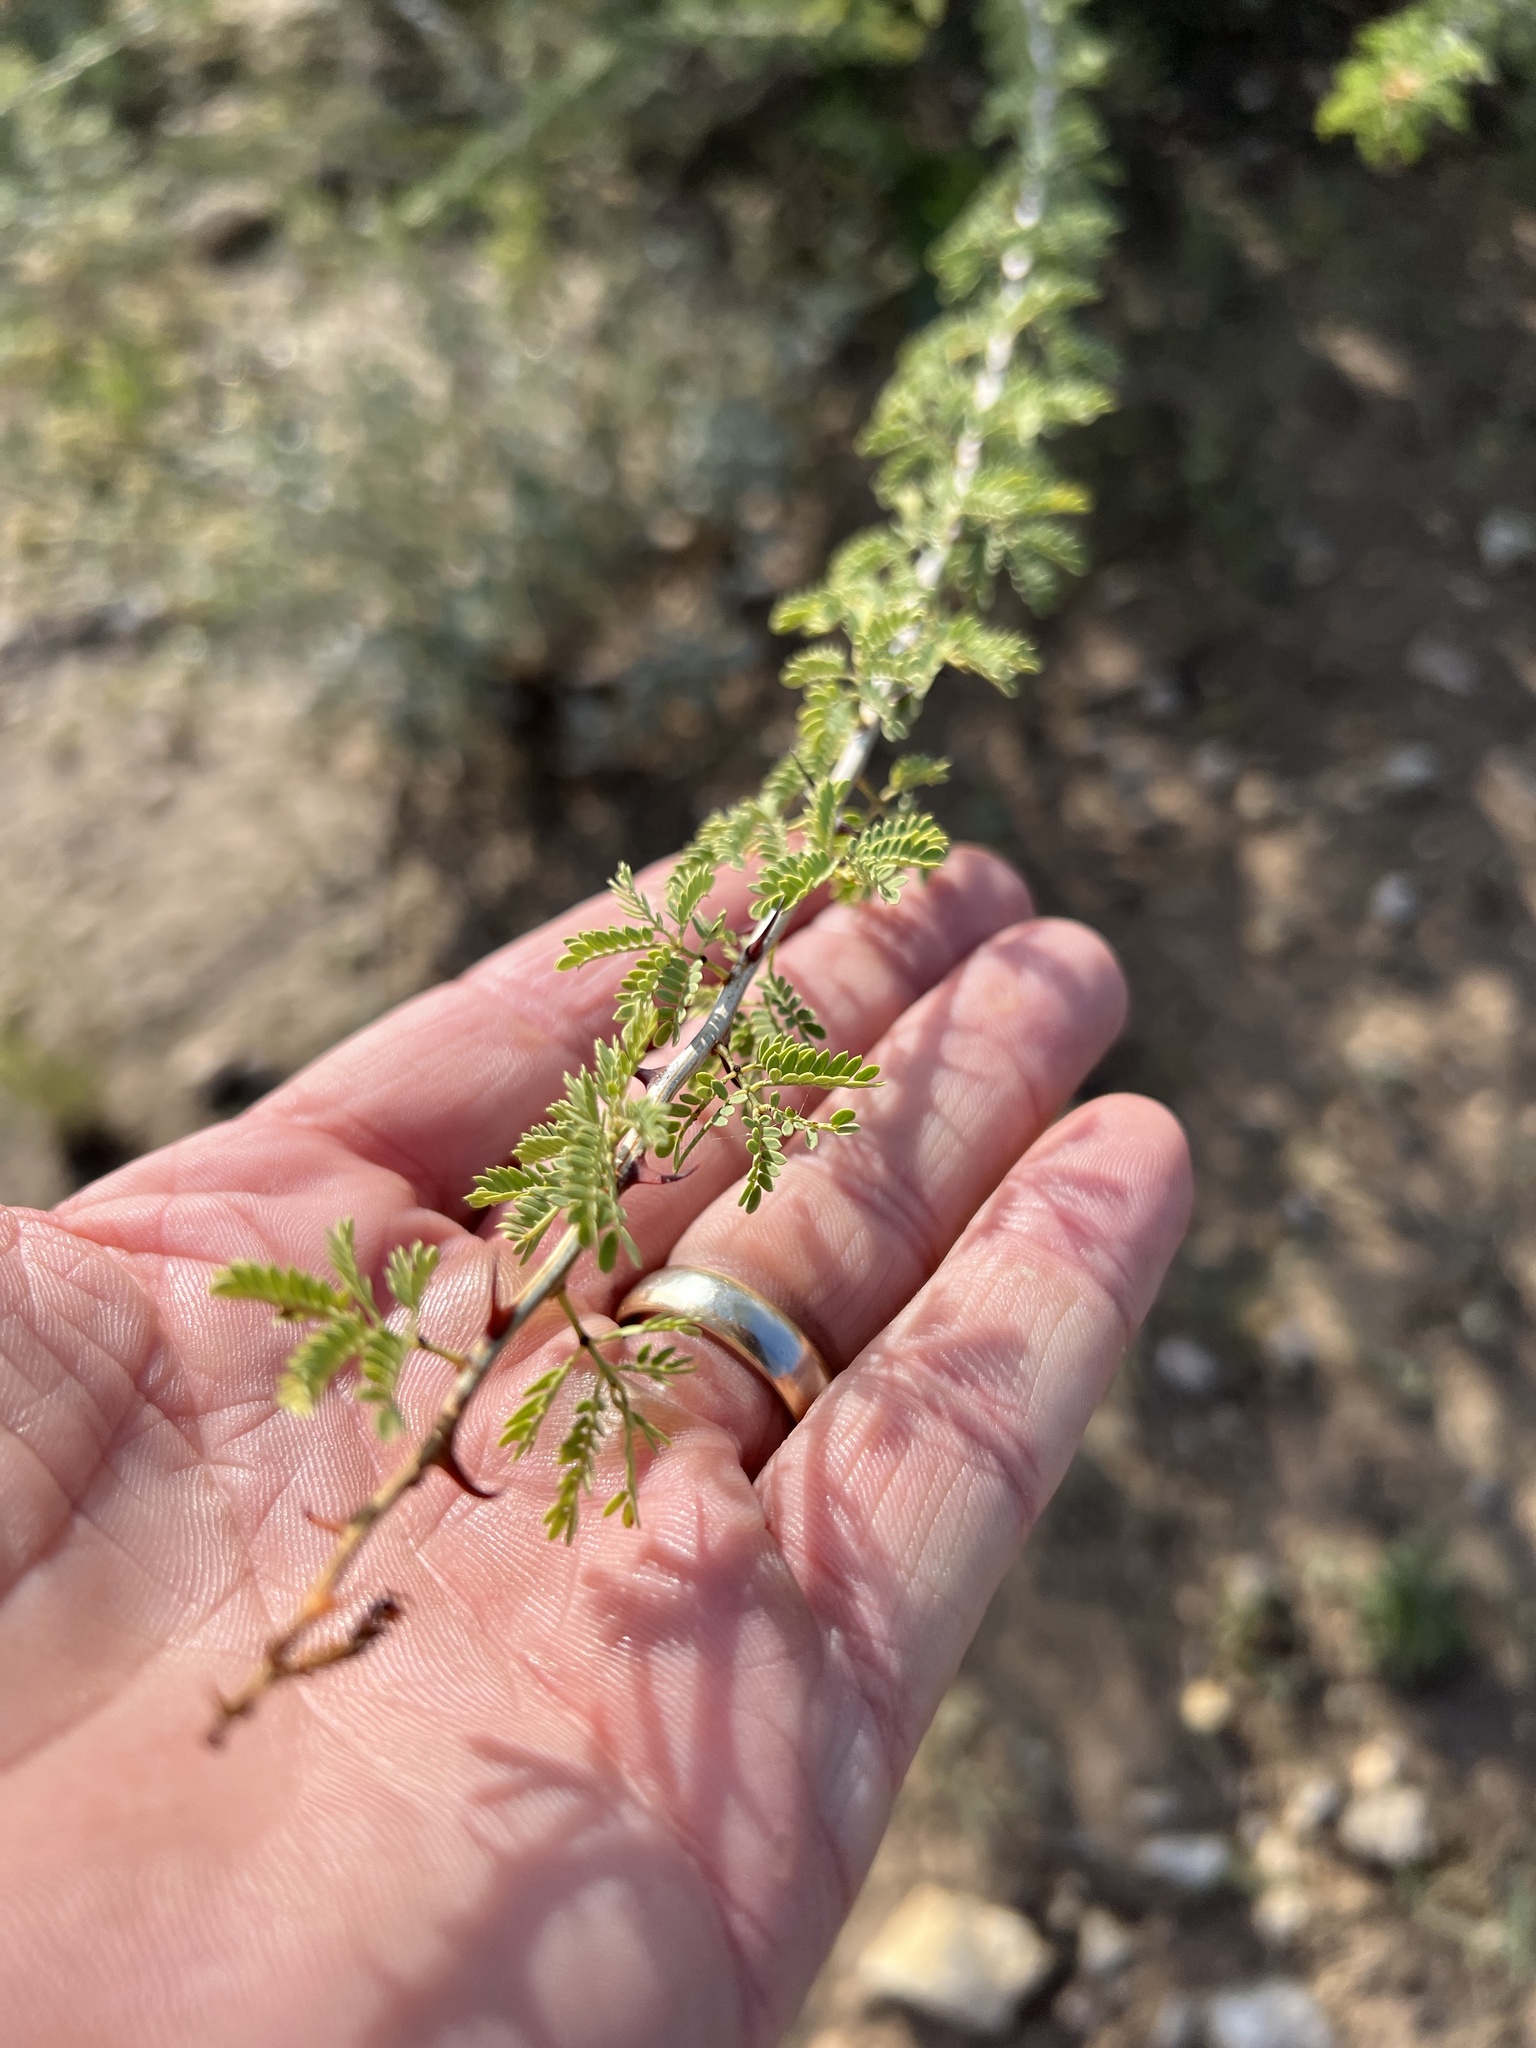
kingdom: Plantae
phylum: Tracheophyta
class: Magnoliopsida
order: Fabales
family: Fabaceae
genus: Senegalia
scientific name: Senegalia greggii
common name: Texas-mimosa
